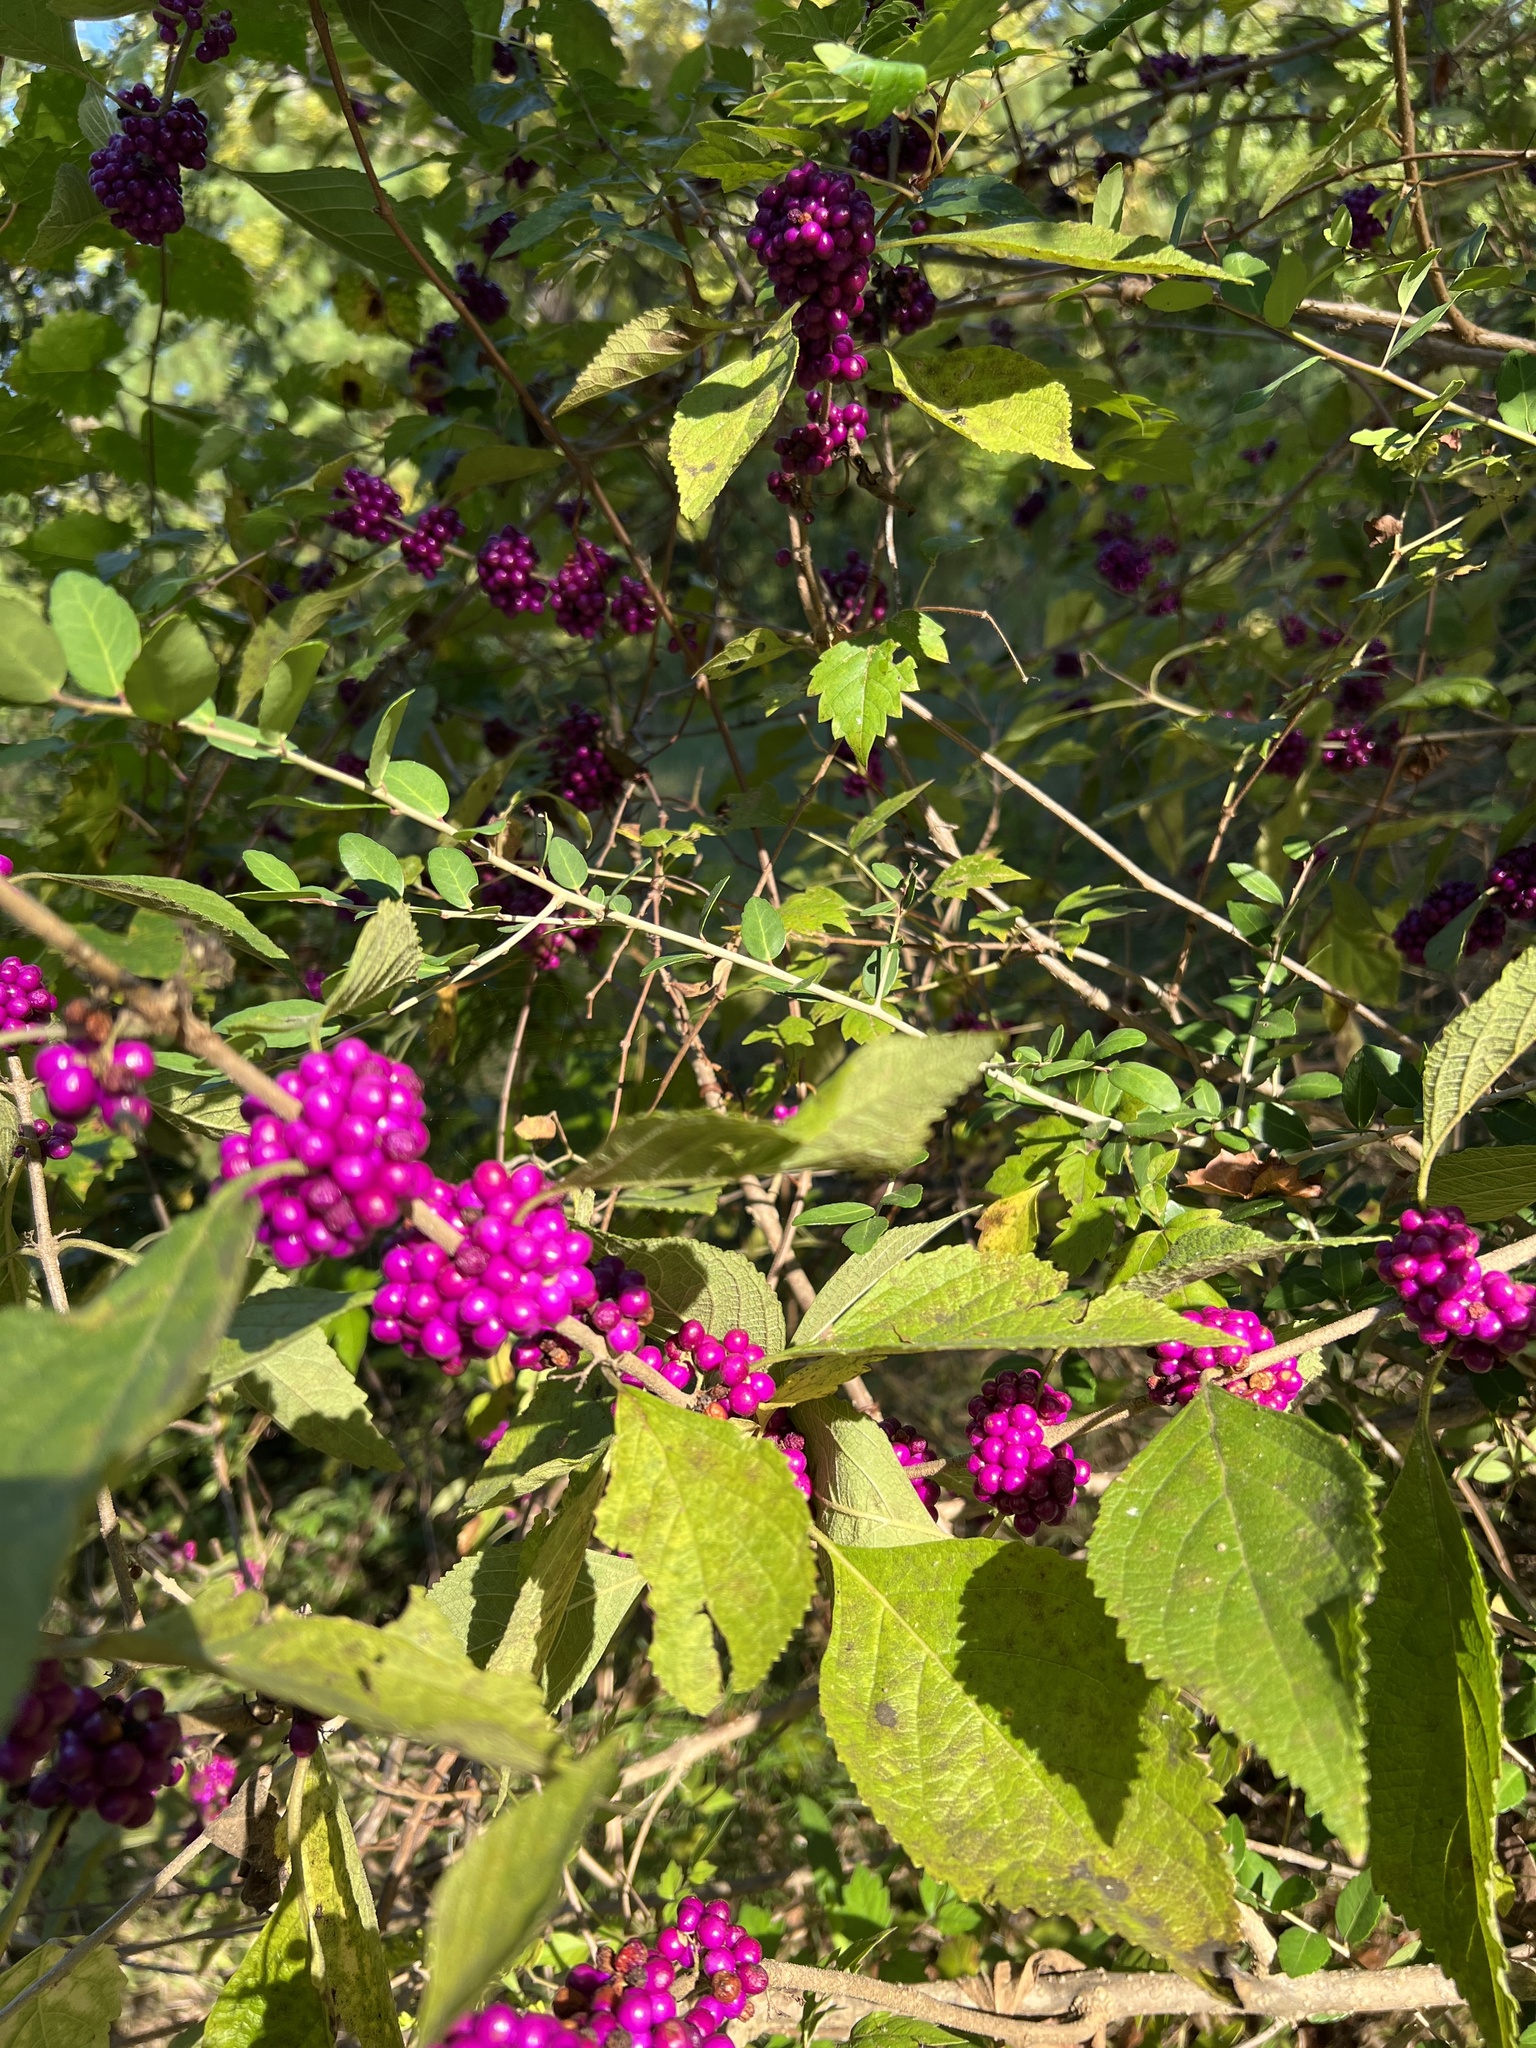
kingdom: Plantae
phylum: Tracheophyta
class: Magnoliopsida
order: Lamiales
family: Lamiaceae
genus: Callicarpa
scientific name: Callicarpa americana
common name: American beautyberry
